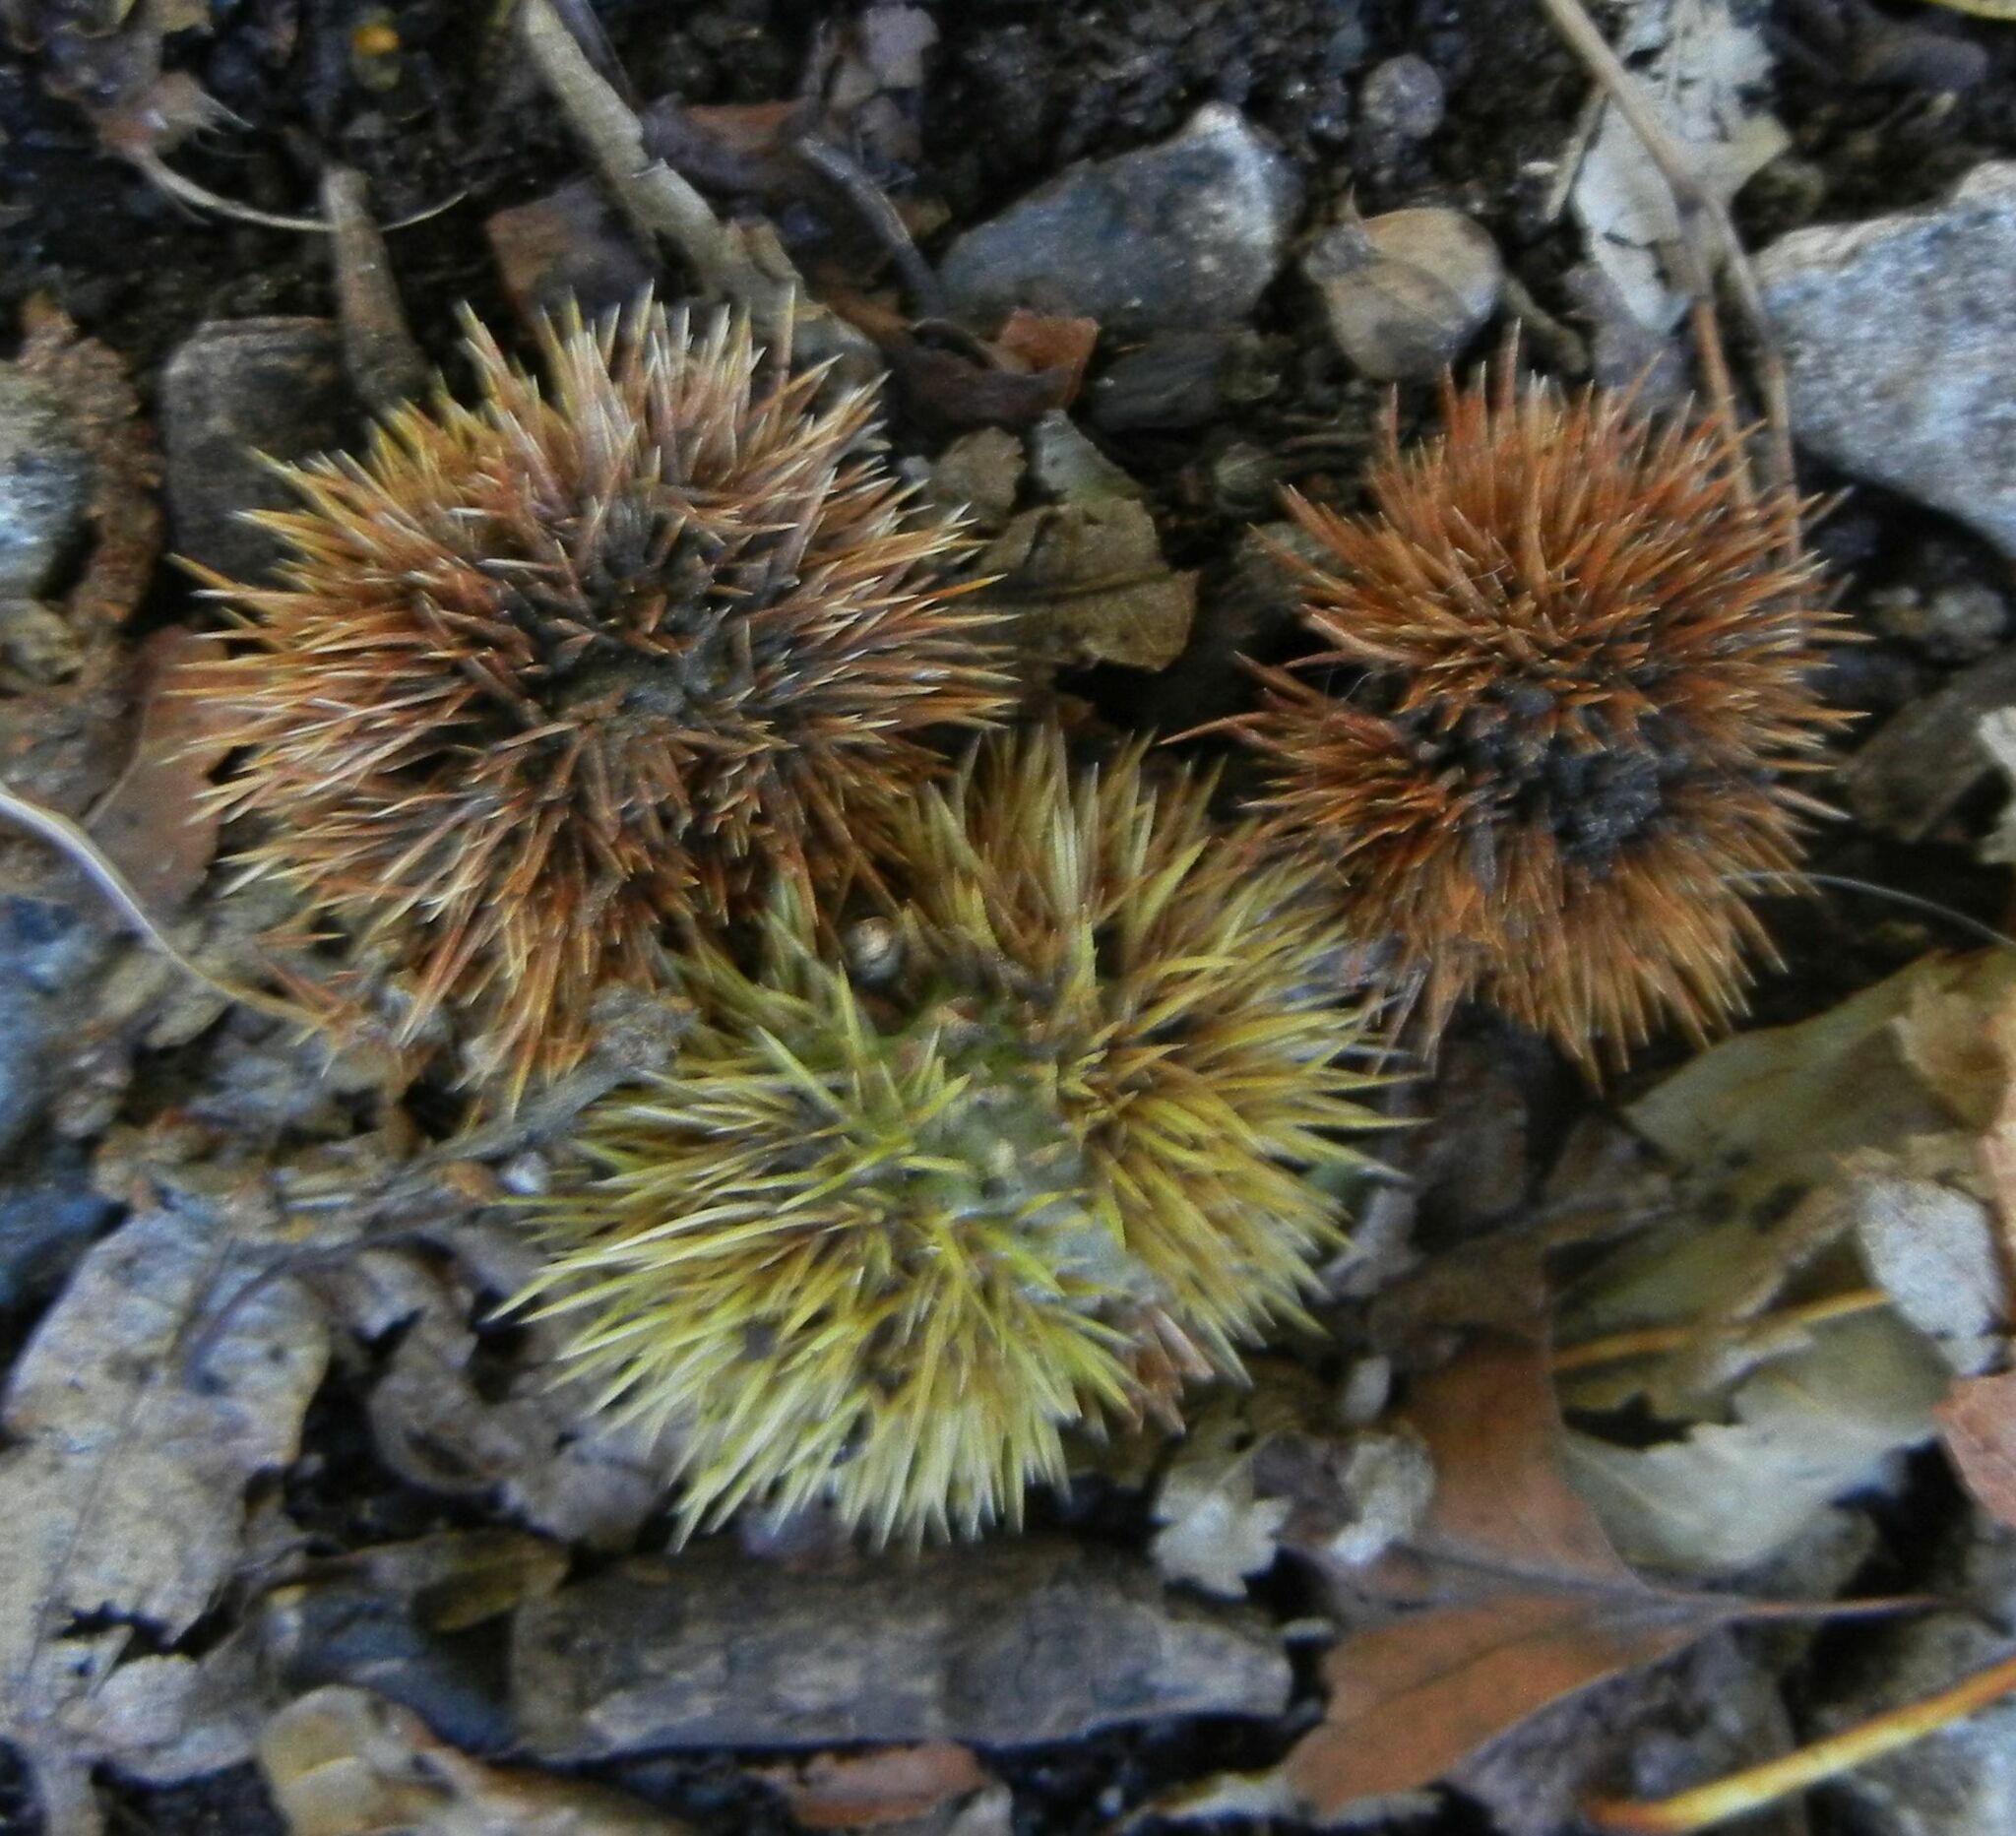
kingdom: Plantae
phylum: Tracheophyta
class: Magnoliopsida
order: Fagales
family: Fagaceae
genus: Castanea
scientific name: Castanea sativa
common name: Sweet chestnut
